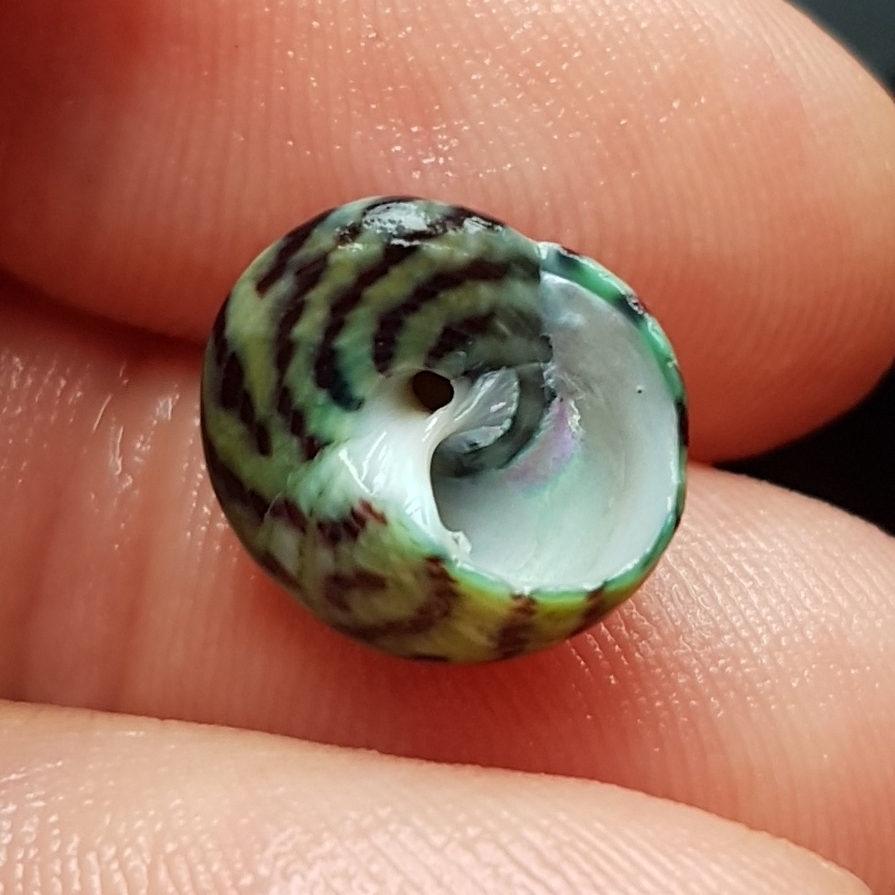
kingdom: Animalia
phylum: Mollusca
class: Gastropoda
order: Trochida
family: Trochidae
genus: Steromphala
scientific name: Steromphala umbilicalis
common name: Flat top shell
